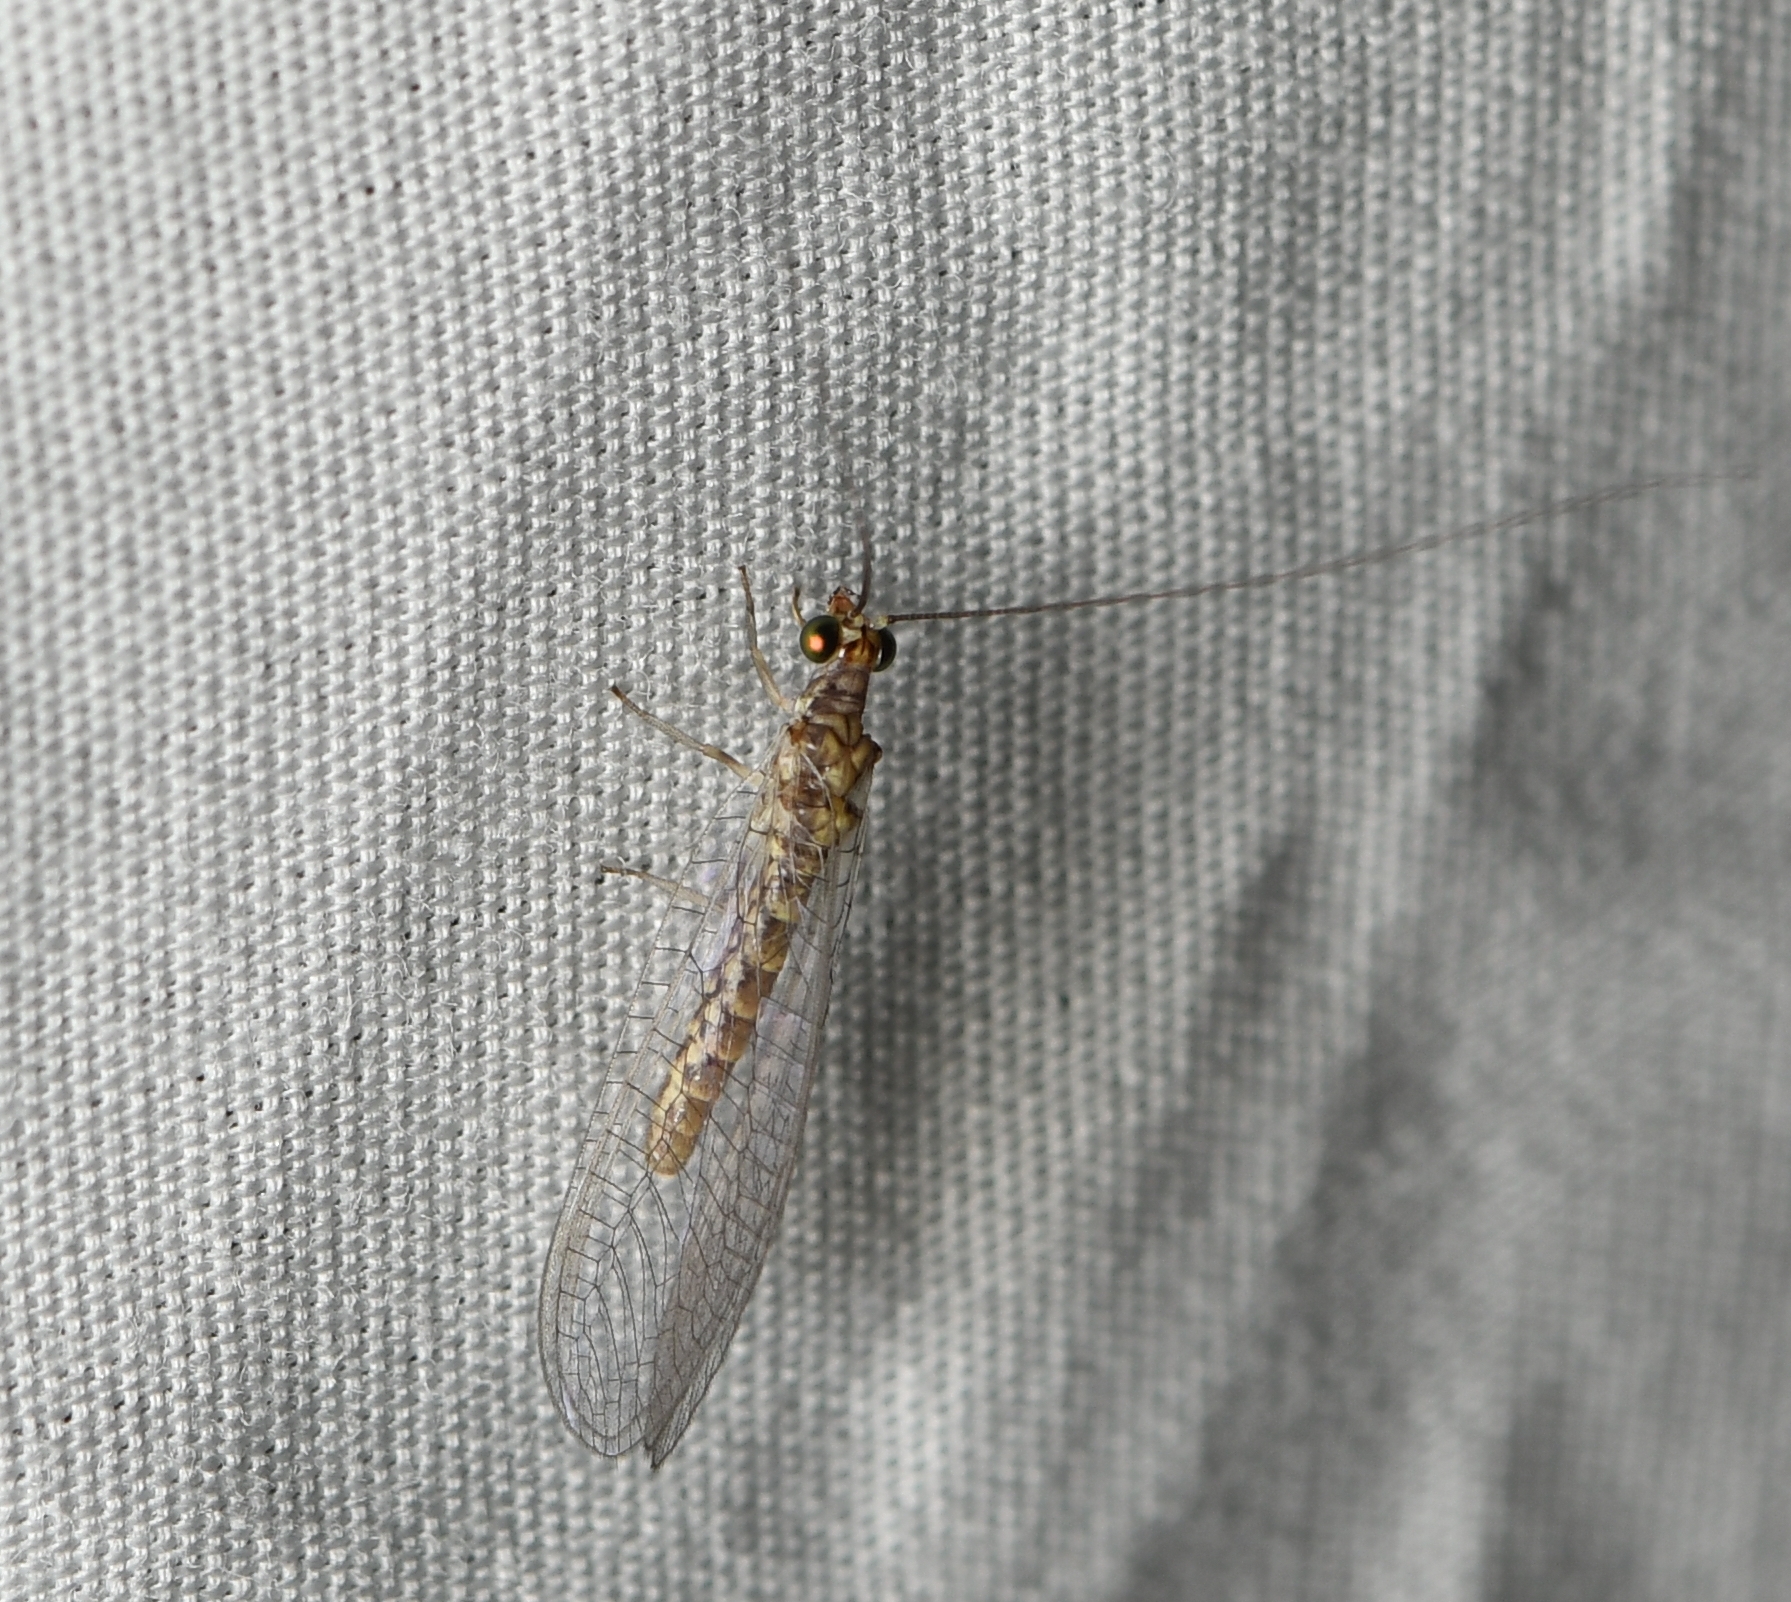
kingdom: Animalia
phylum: Arthropoda
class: Insecta
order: Neuroptera
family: Chrysopidae
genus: Yumachrysa
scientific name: Yumachrysa apache
